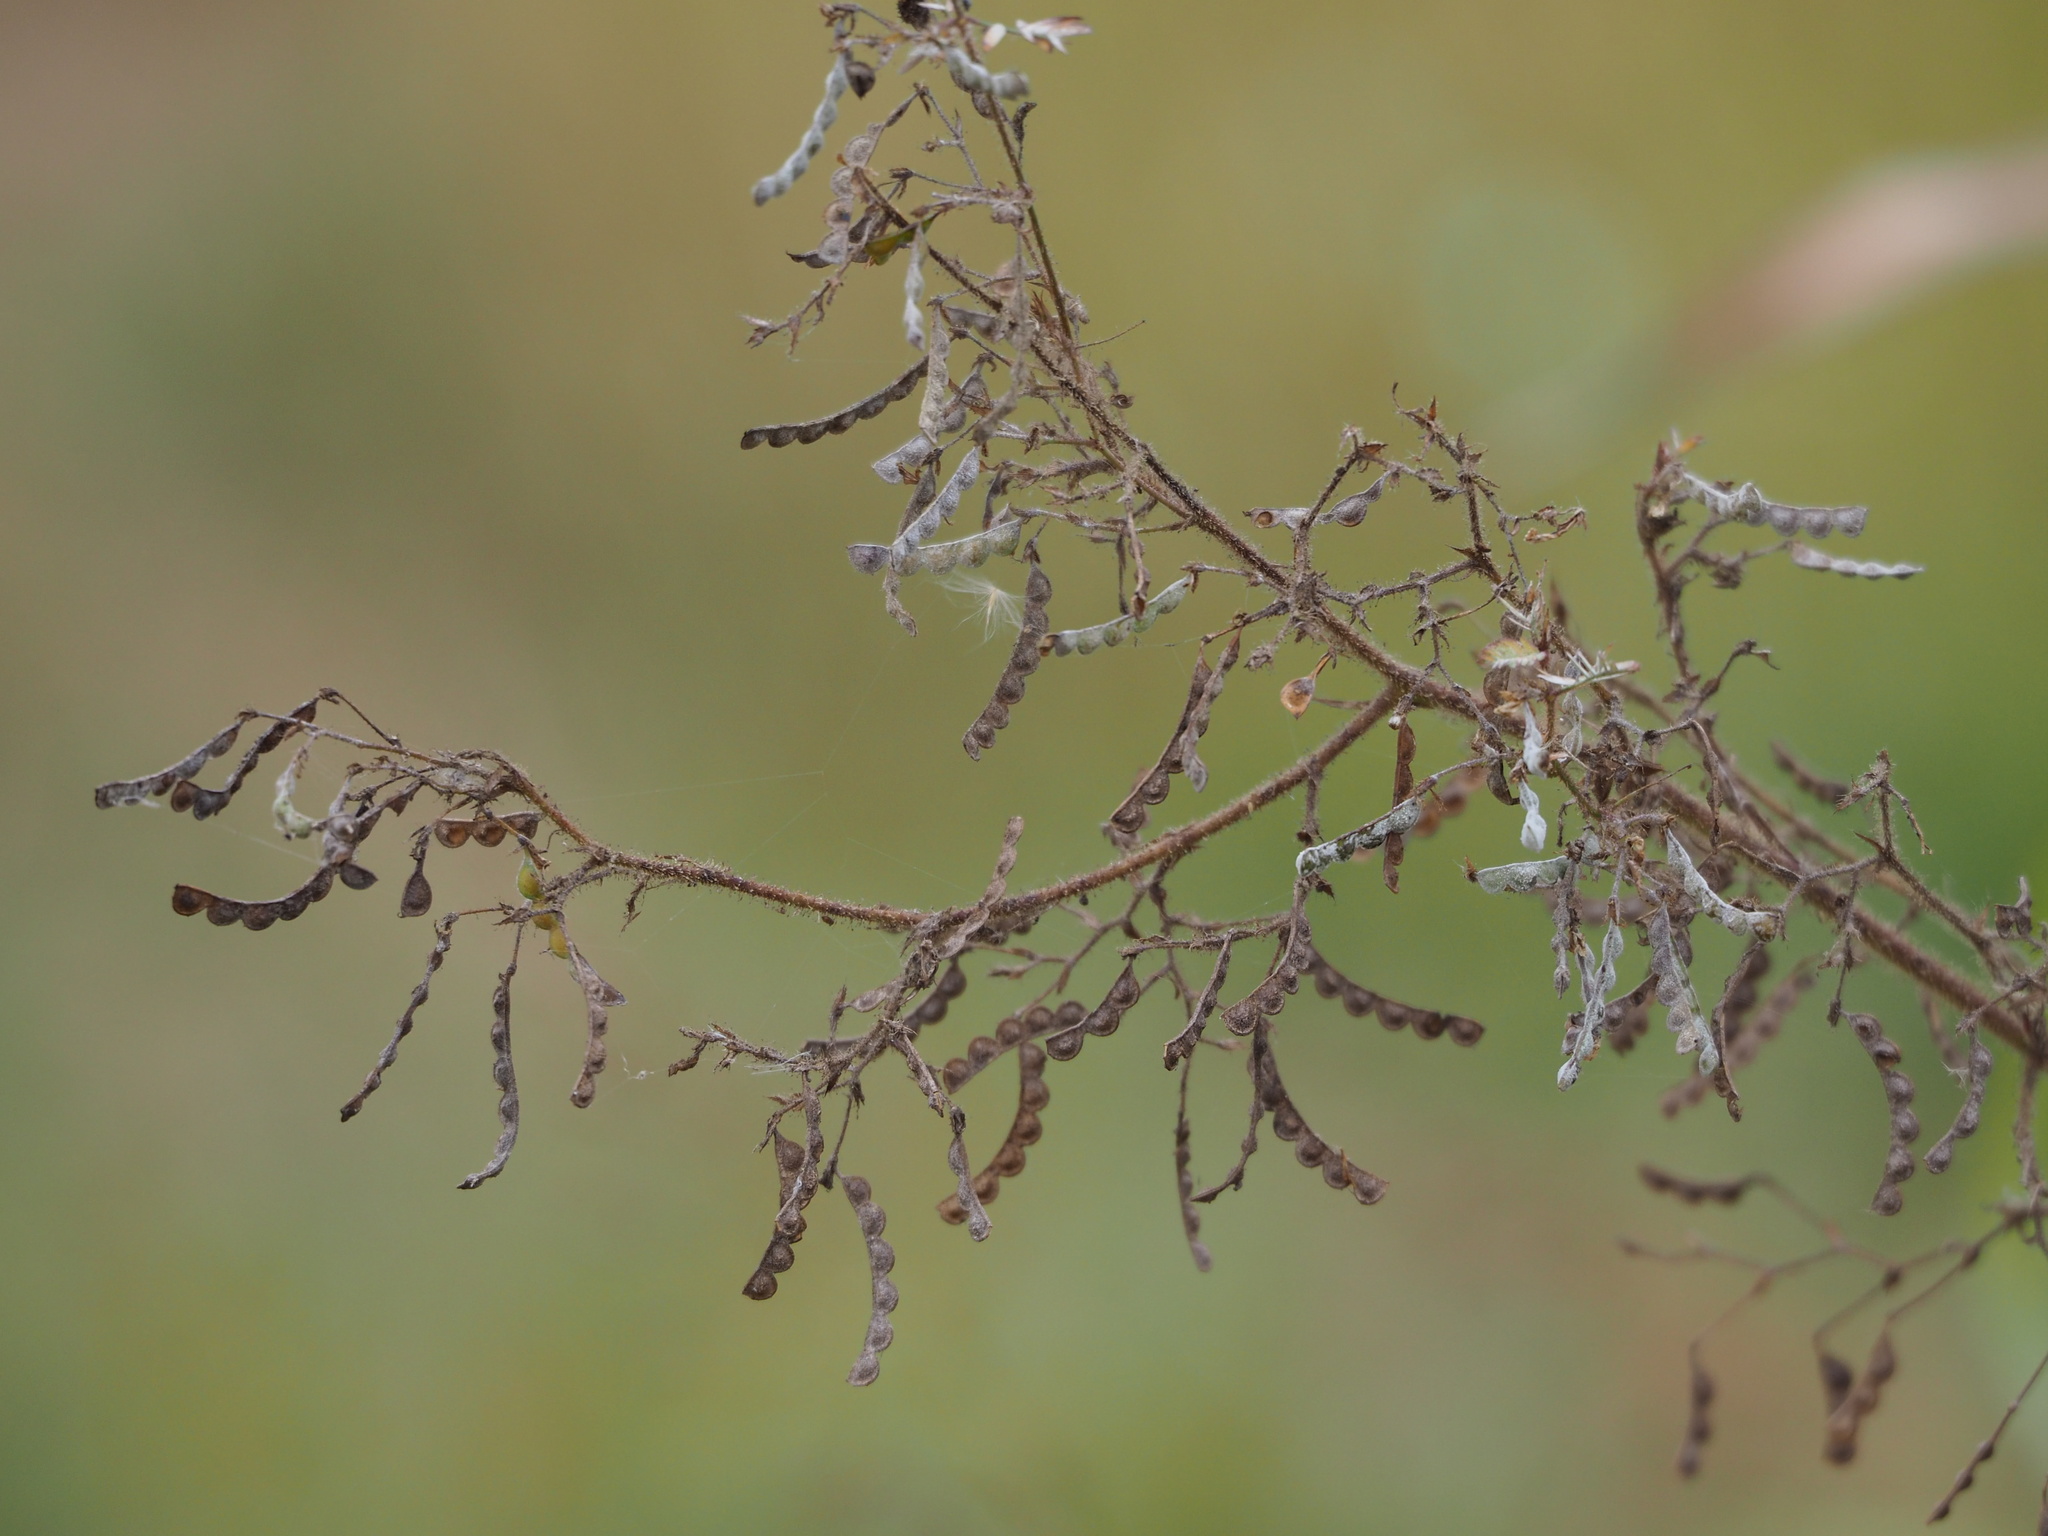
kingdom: Plantae
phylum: Tracheophyta
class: Magnoliopsida
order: Fabales
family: Fabaceae
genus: Aeschynomene
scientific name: Aeschynomene americana
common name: Joint-vetch
